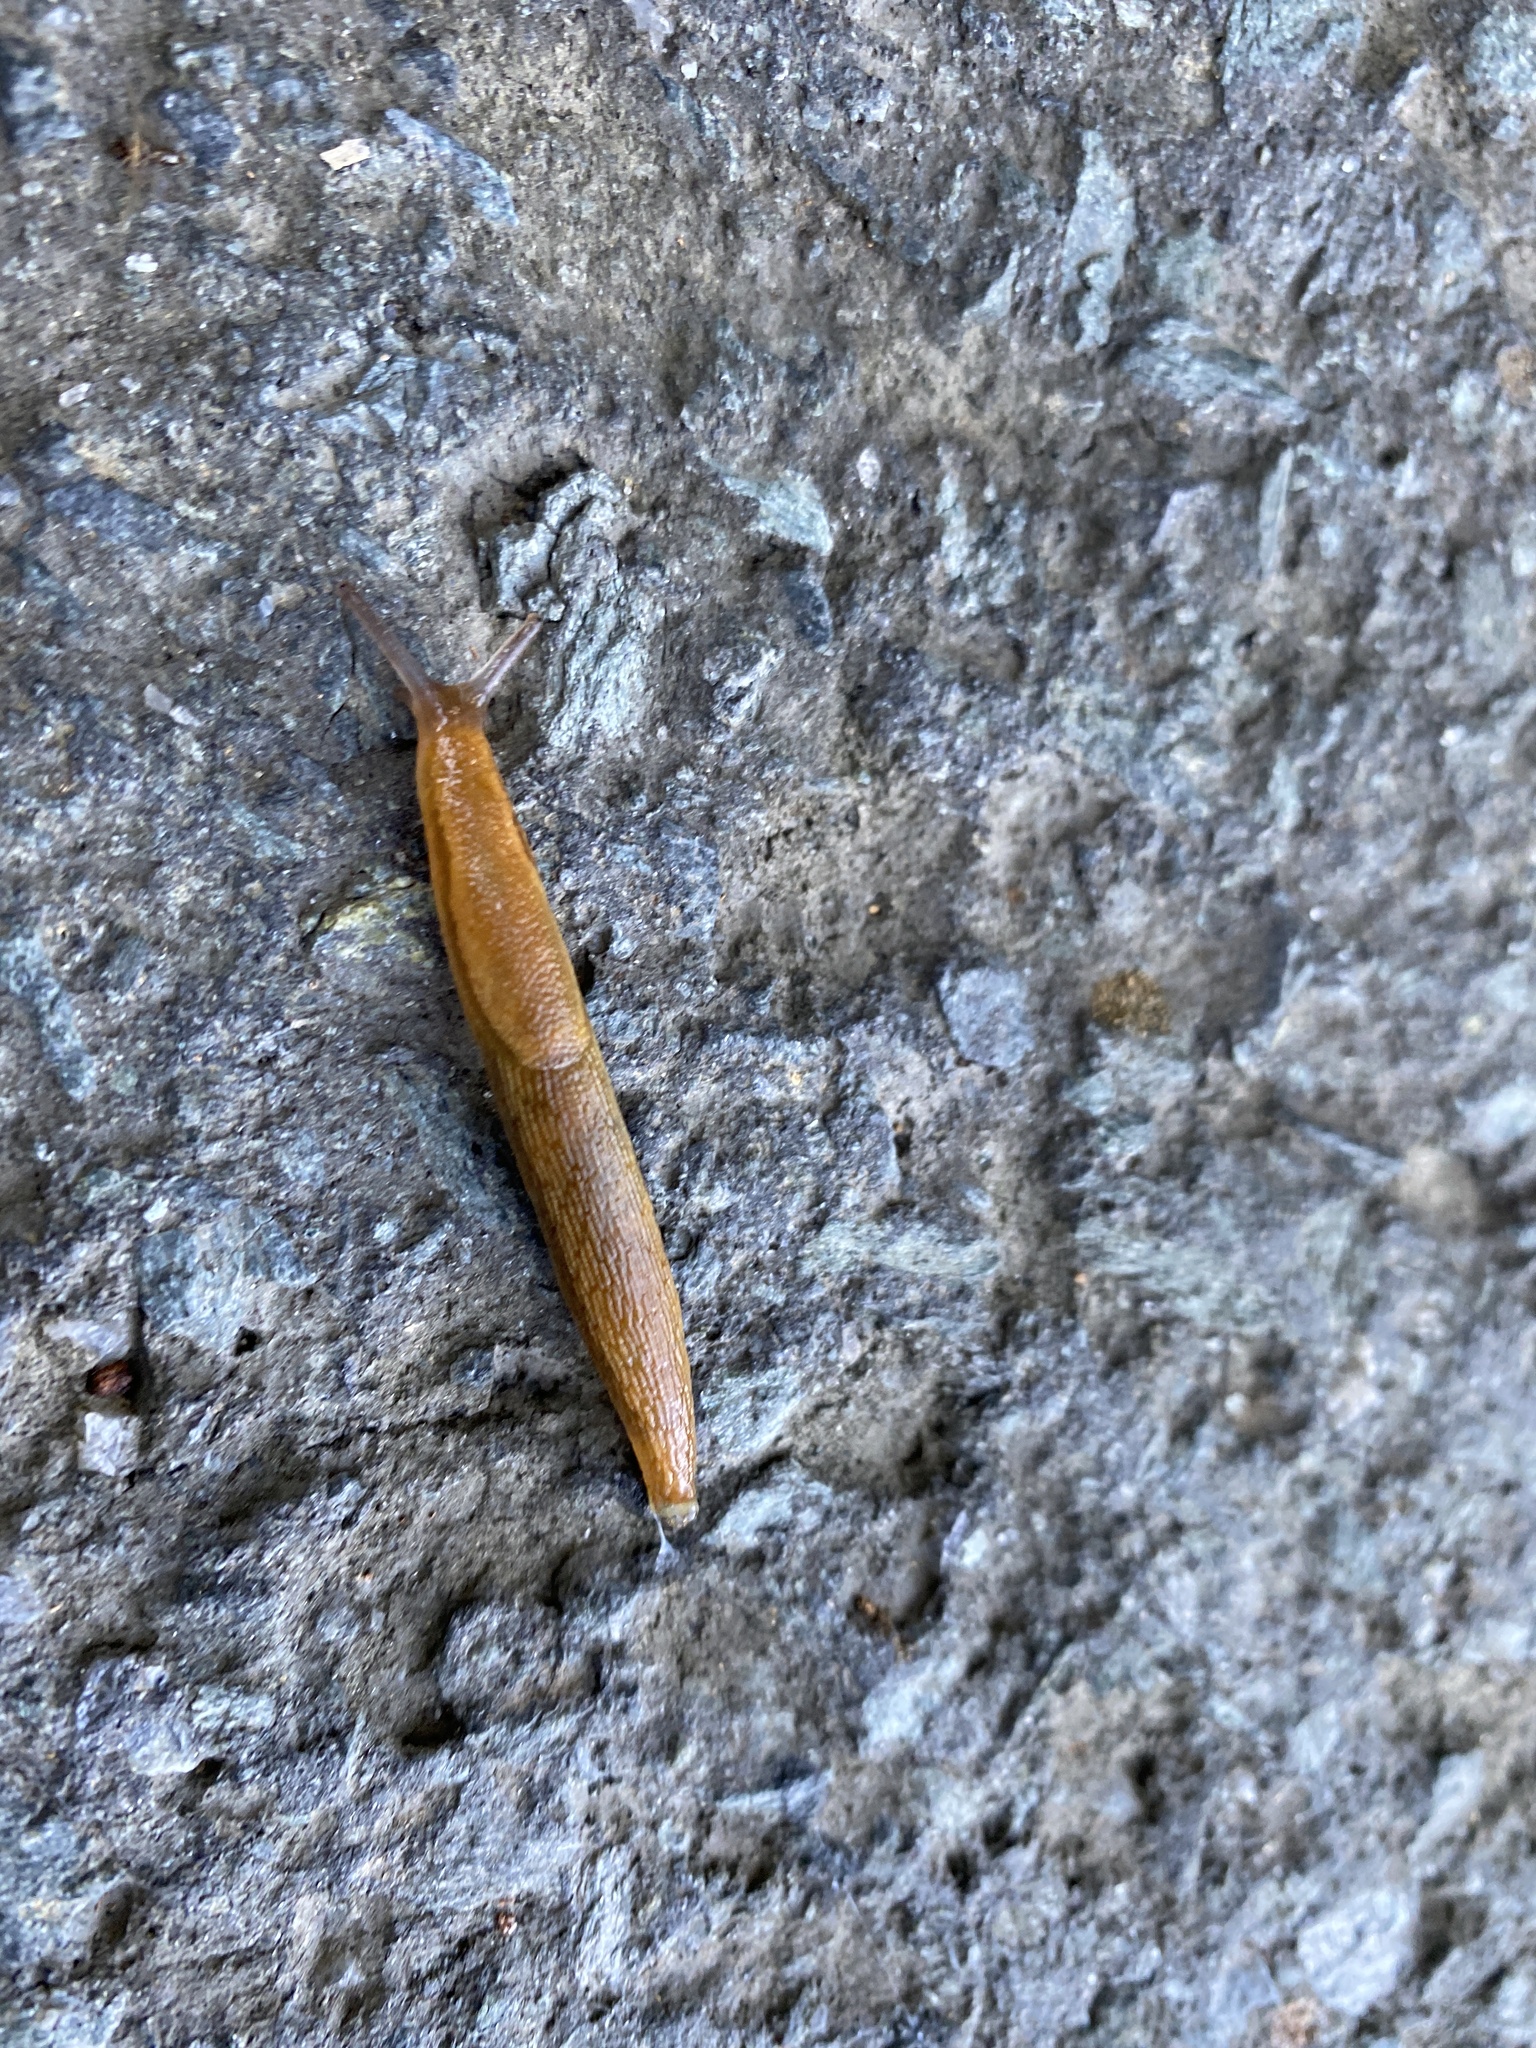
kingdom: Animalia
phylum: Mollusca
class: Gastropoda
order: Stylommatophora
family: Arionidae
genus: Arion
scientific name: Arion subfuscus
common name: Dusky arion
